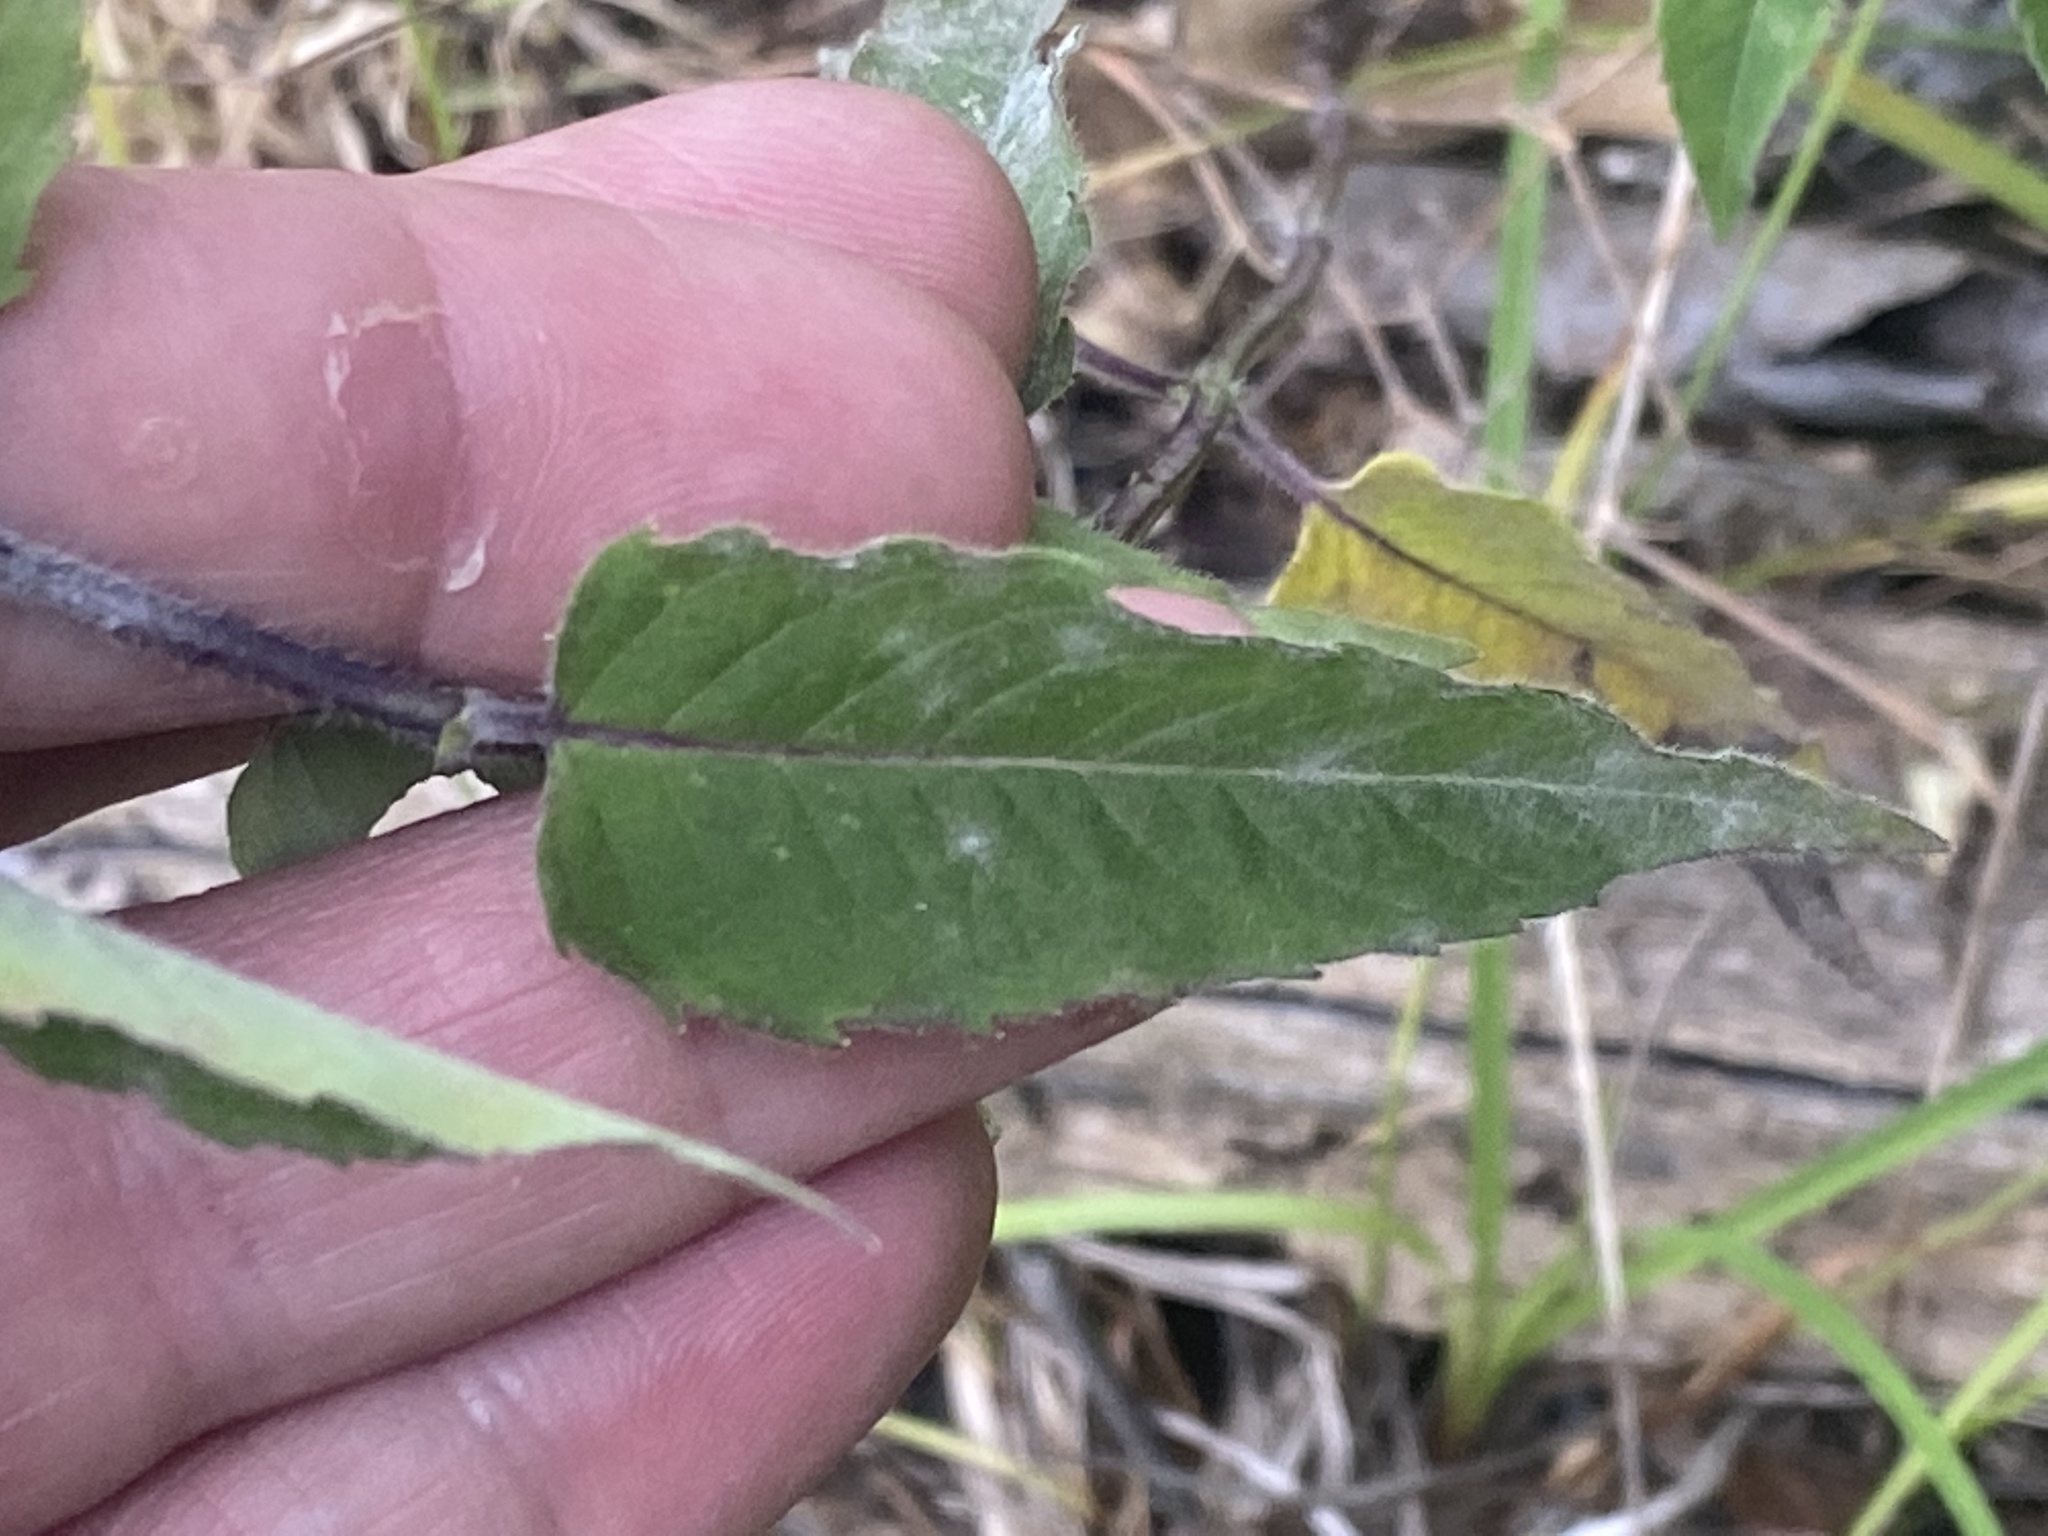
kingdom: Plantae
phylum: Tracheophyta
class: Magnoliopsida
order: Lamiales
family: Lamiaceae
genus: Monarda
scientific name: Monarda fistulosa
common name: Purple beebalm
